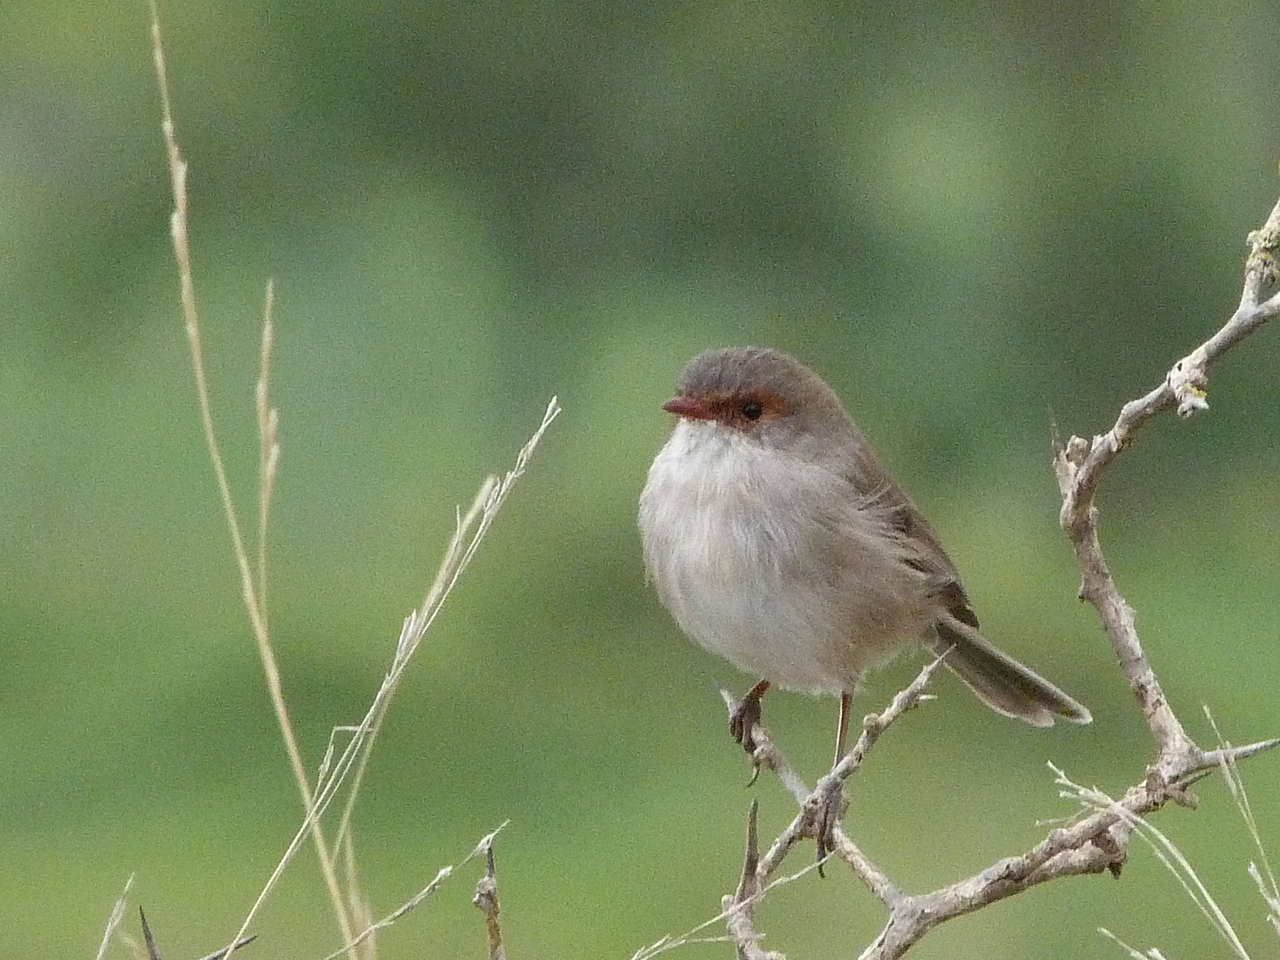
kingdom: Animalia
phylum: Chordata
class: Aves
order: Passeriformes
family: Maluridae
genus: Malurus
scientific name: Malurus cyaneus
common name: Superb fairywren
